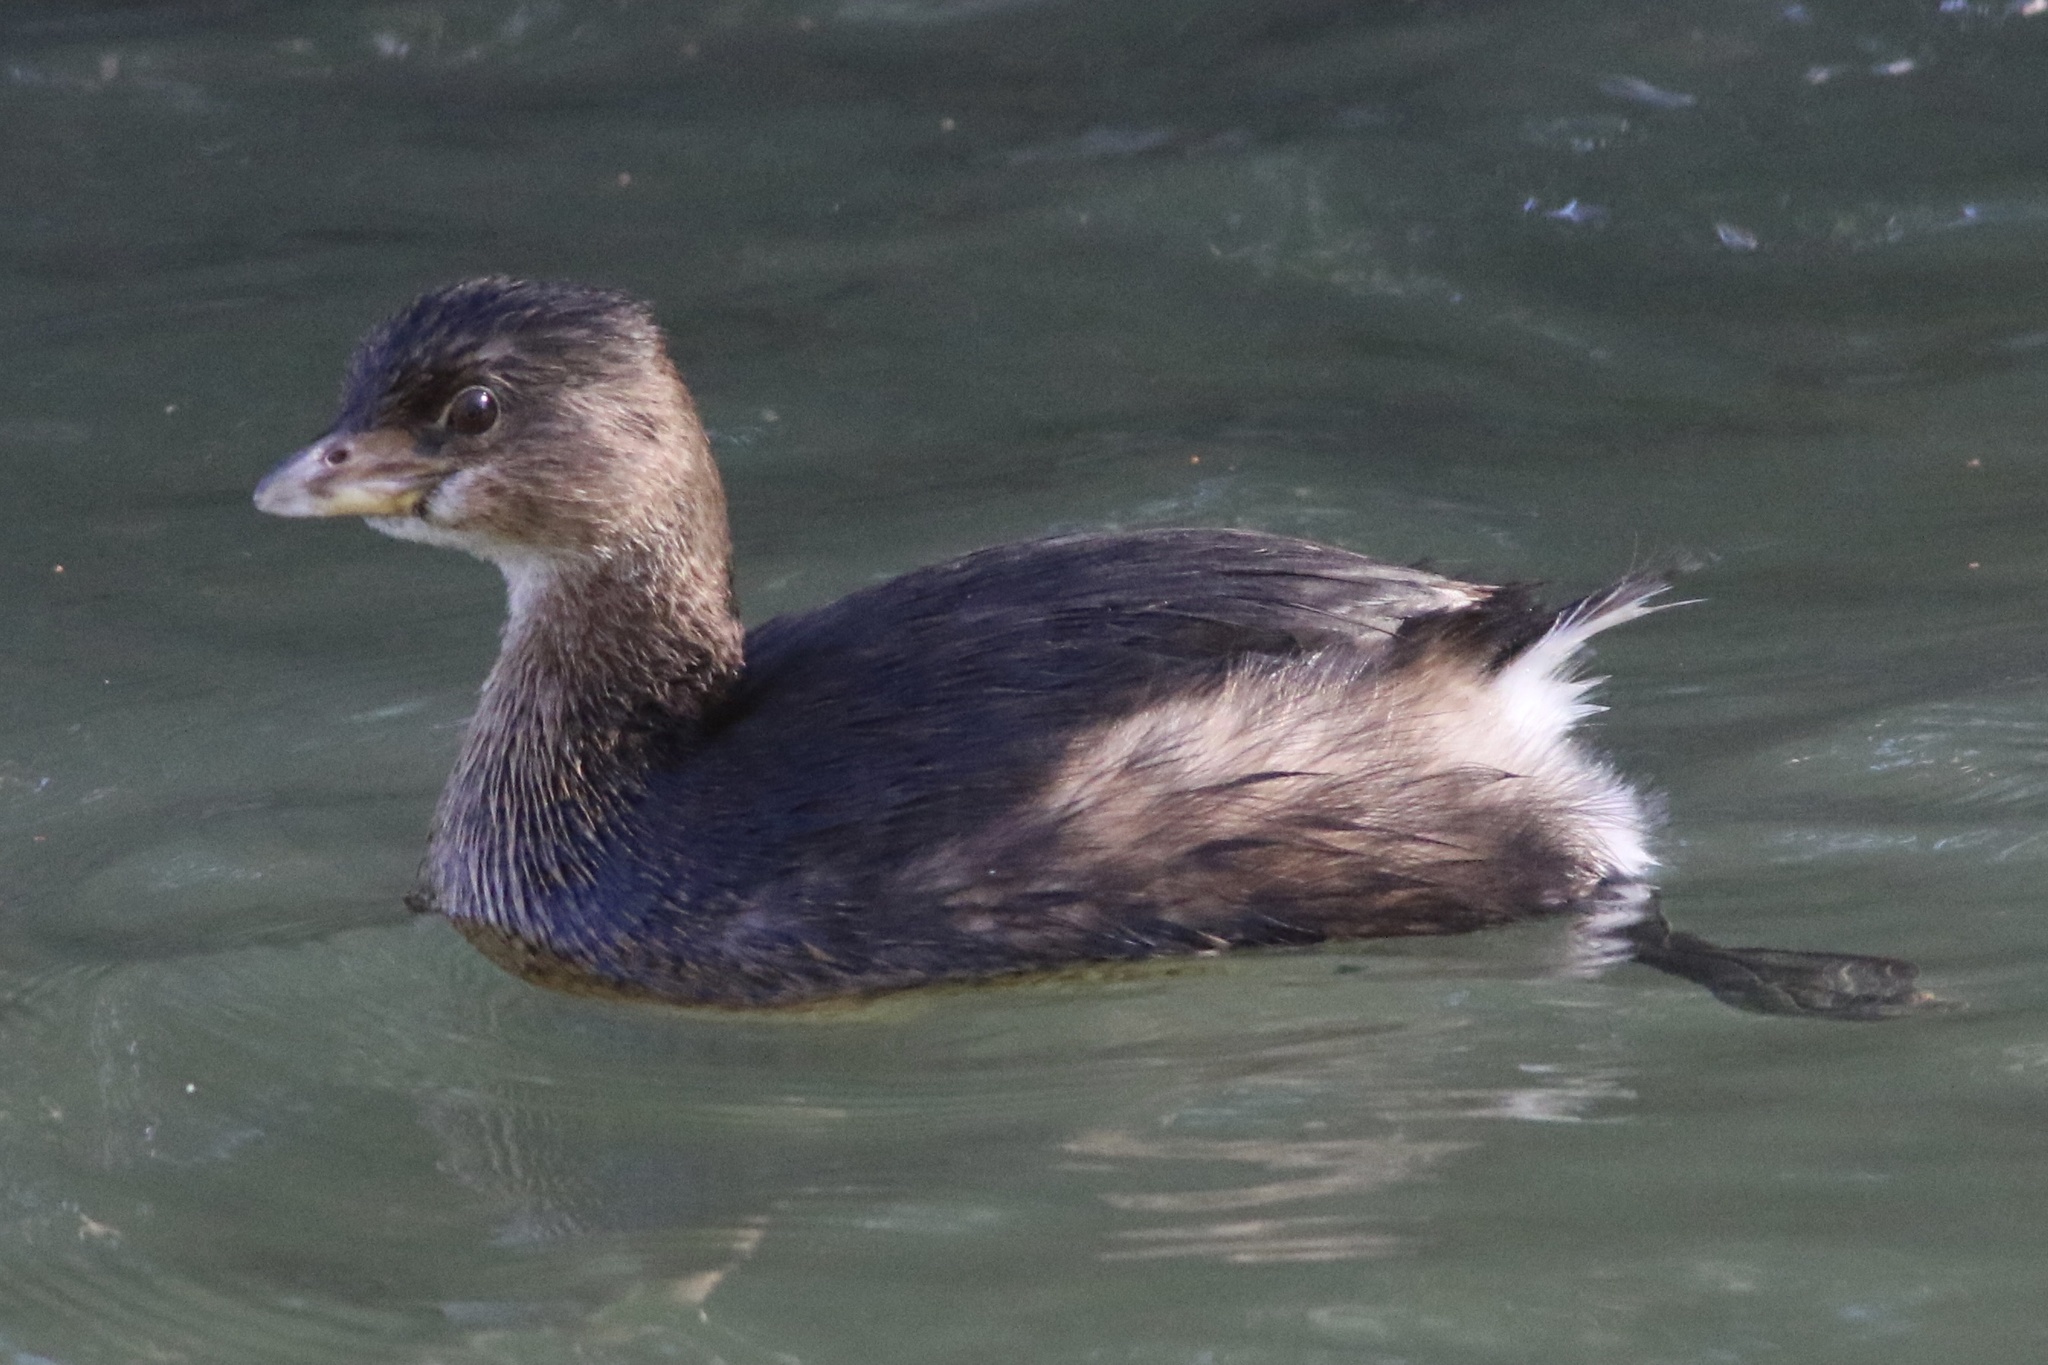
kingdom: Animalia
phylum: Chordata
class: Aves
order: Podicipediformes
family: Podicipedidae
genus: Podilymbus
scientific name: Podilymbus podiceps
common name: Pied-billed grebe
